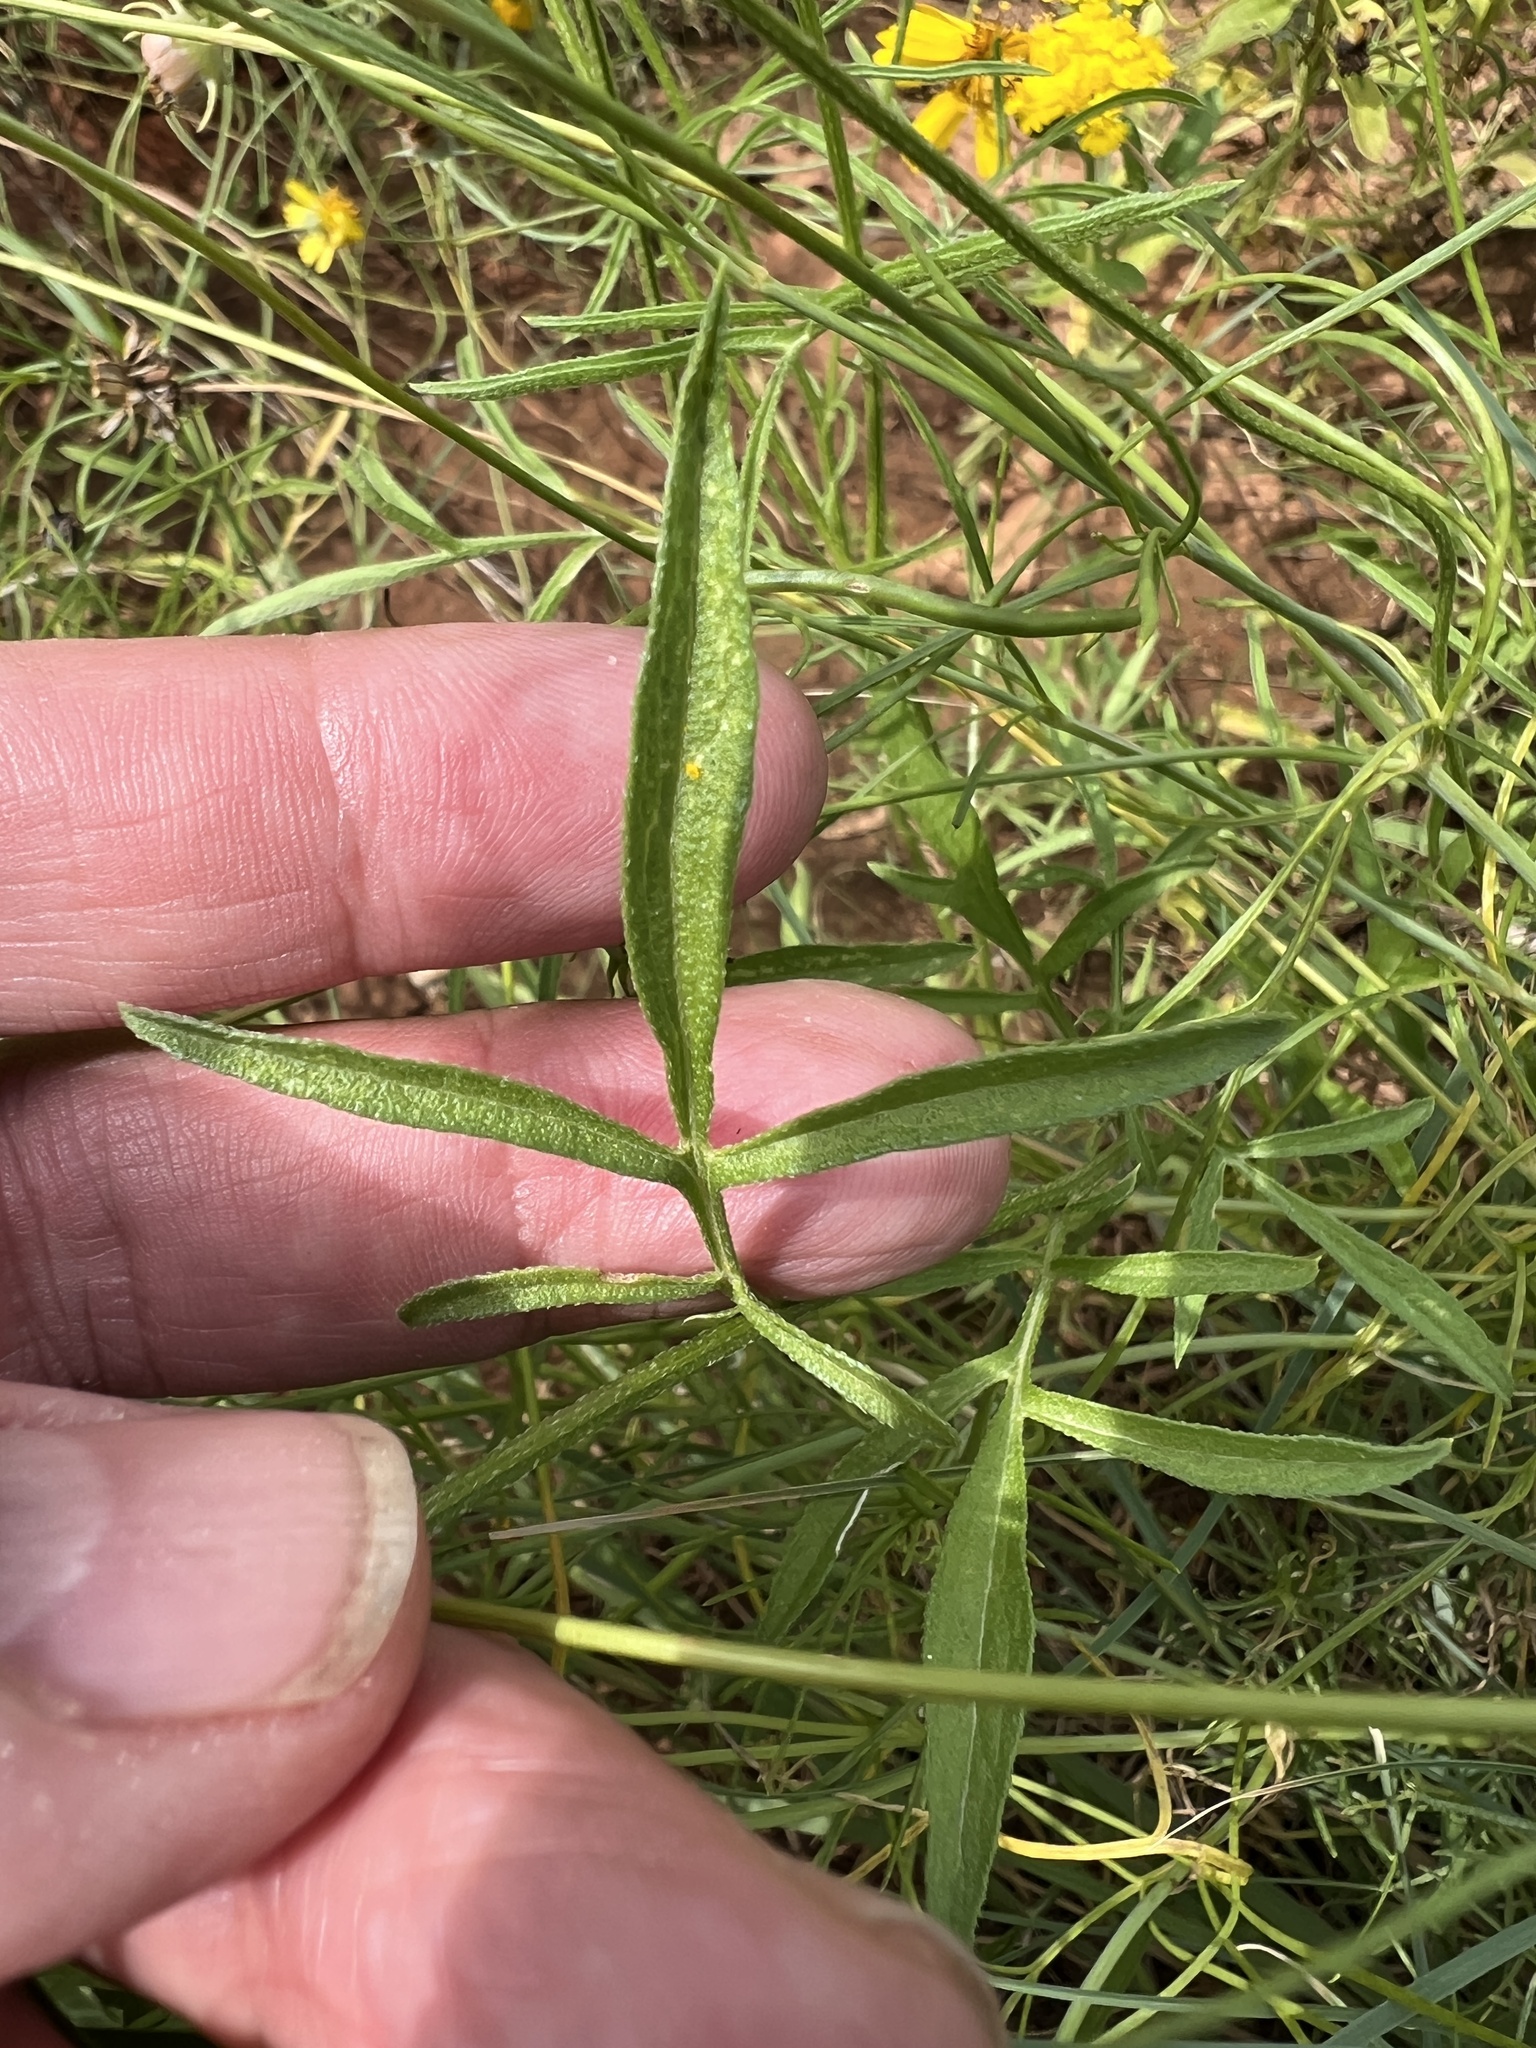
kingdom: Plantae
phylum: Tracheophyta
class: Magnoliopsida
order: Asterales
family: Asteraceae
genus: Ratibida
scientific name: Ratibida columnifera
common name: Prairie coneflower
